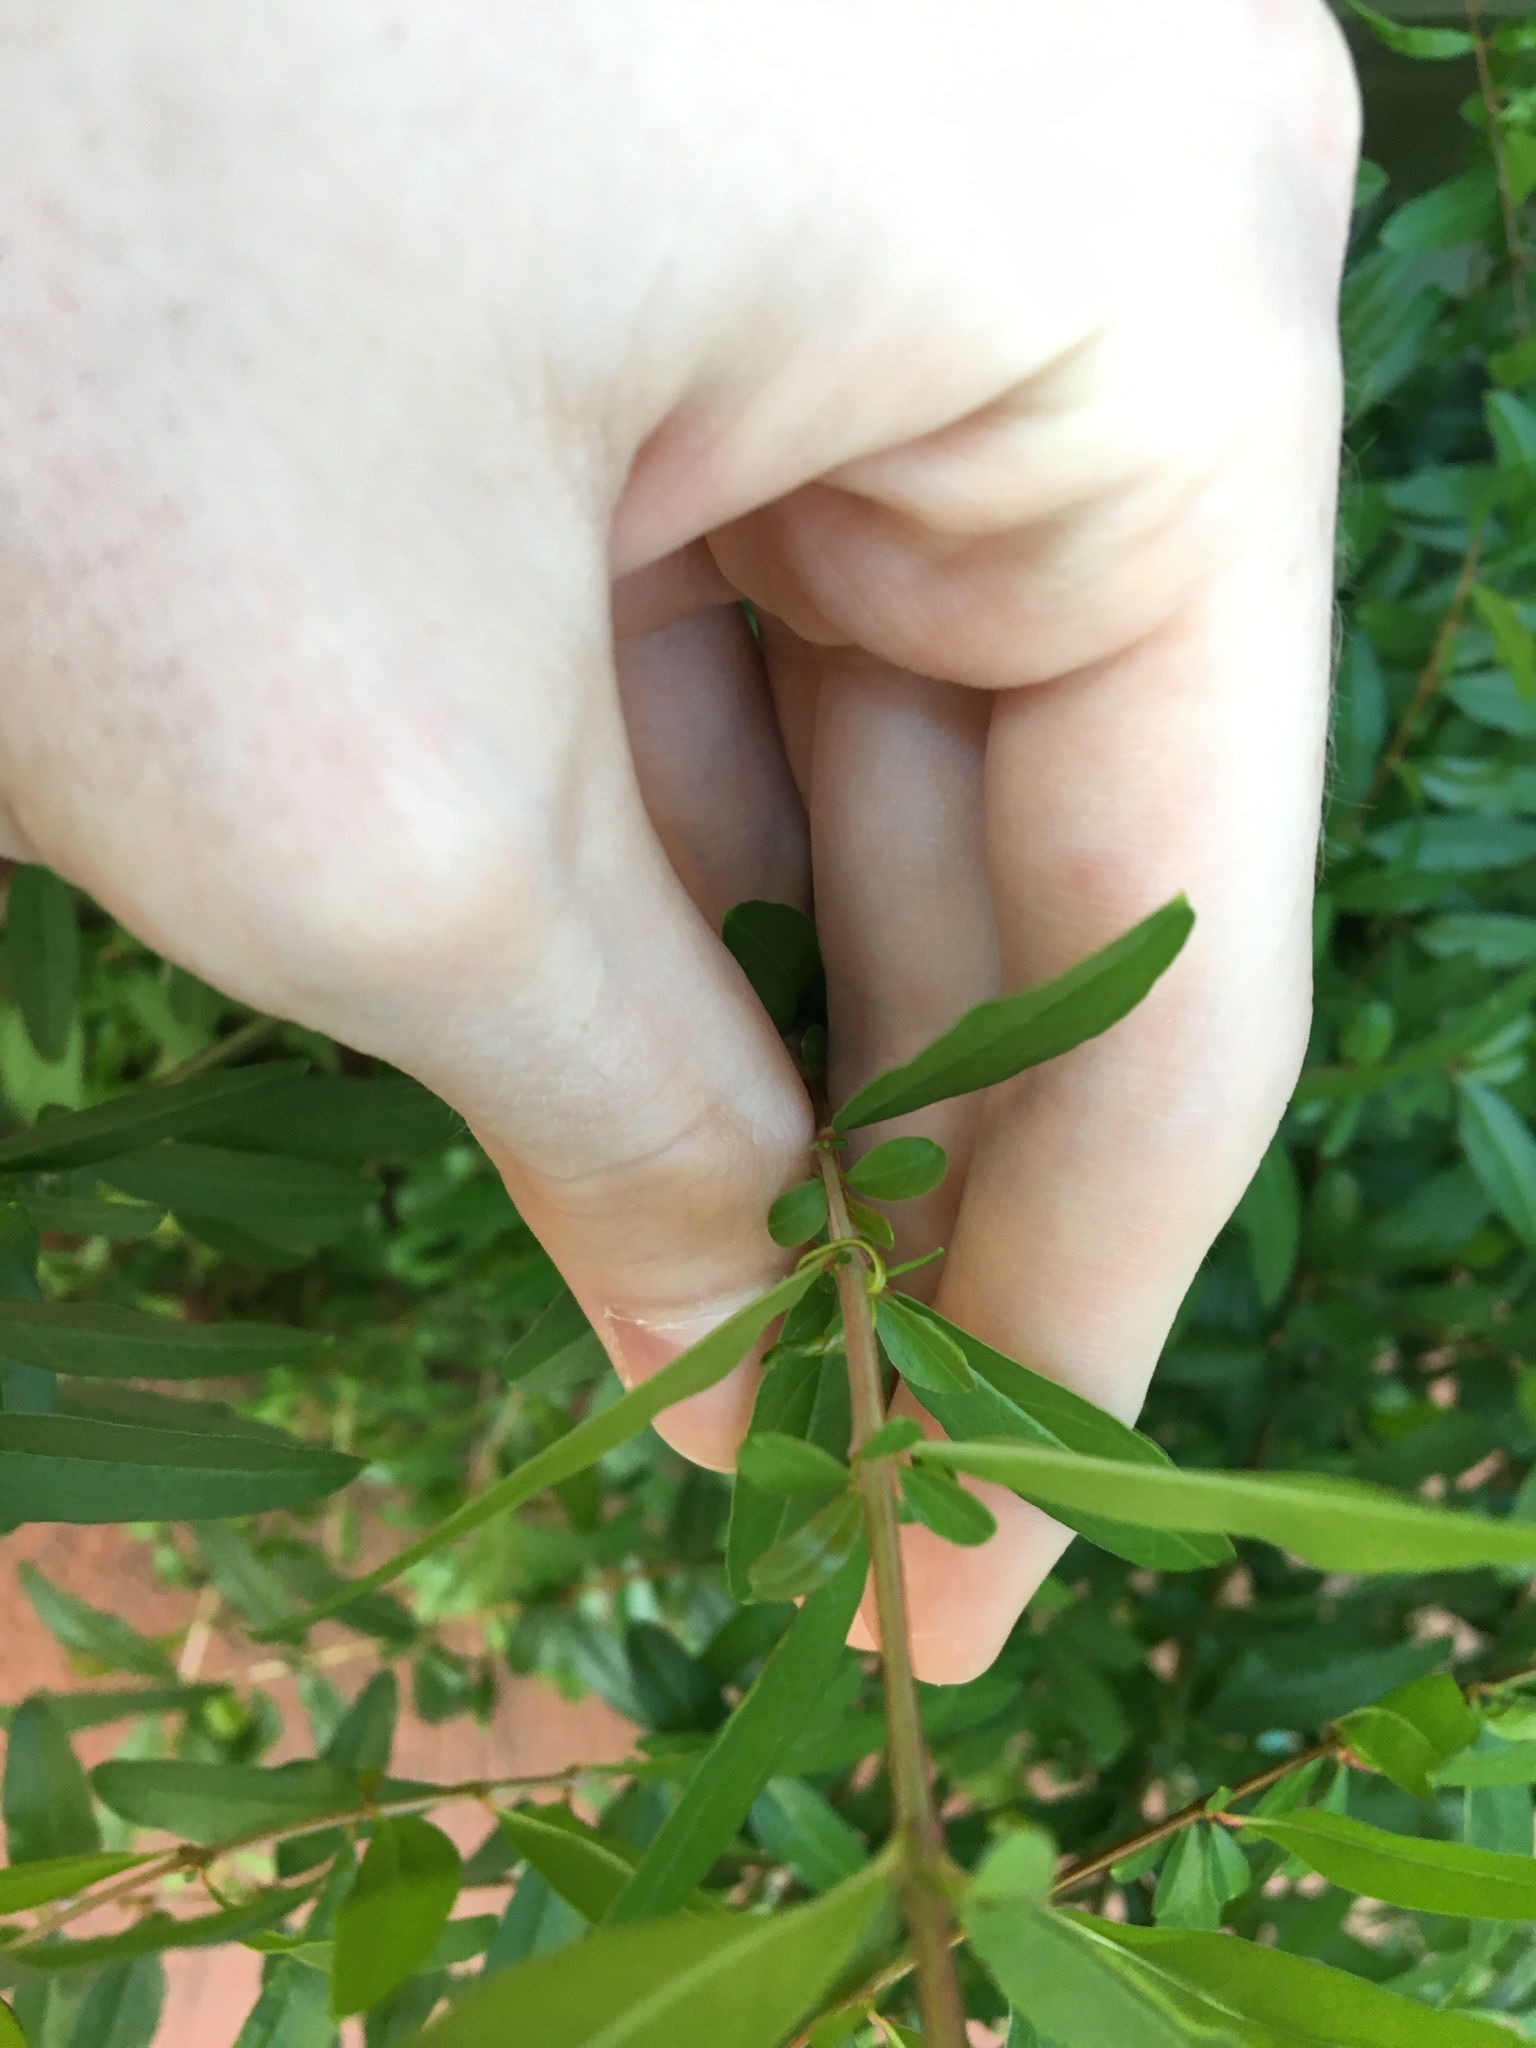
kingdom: Plantae
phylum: Tracheophyta
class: Magnoliopsida
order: Myrtales
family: Lythraceae
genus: Punica
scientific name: Punica granatum
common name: Pomegranate
